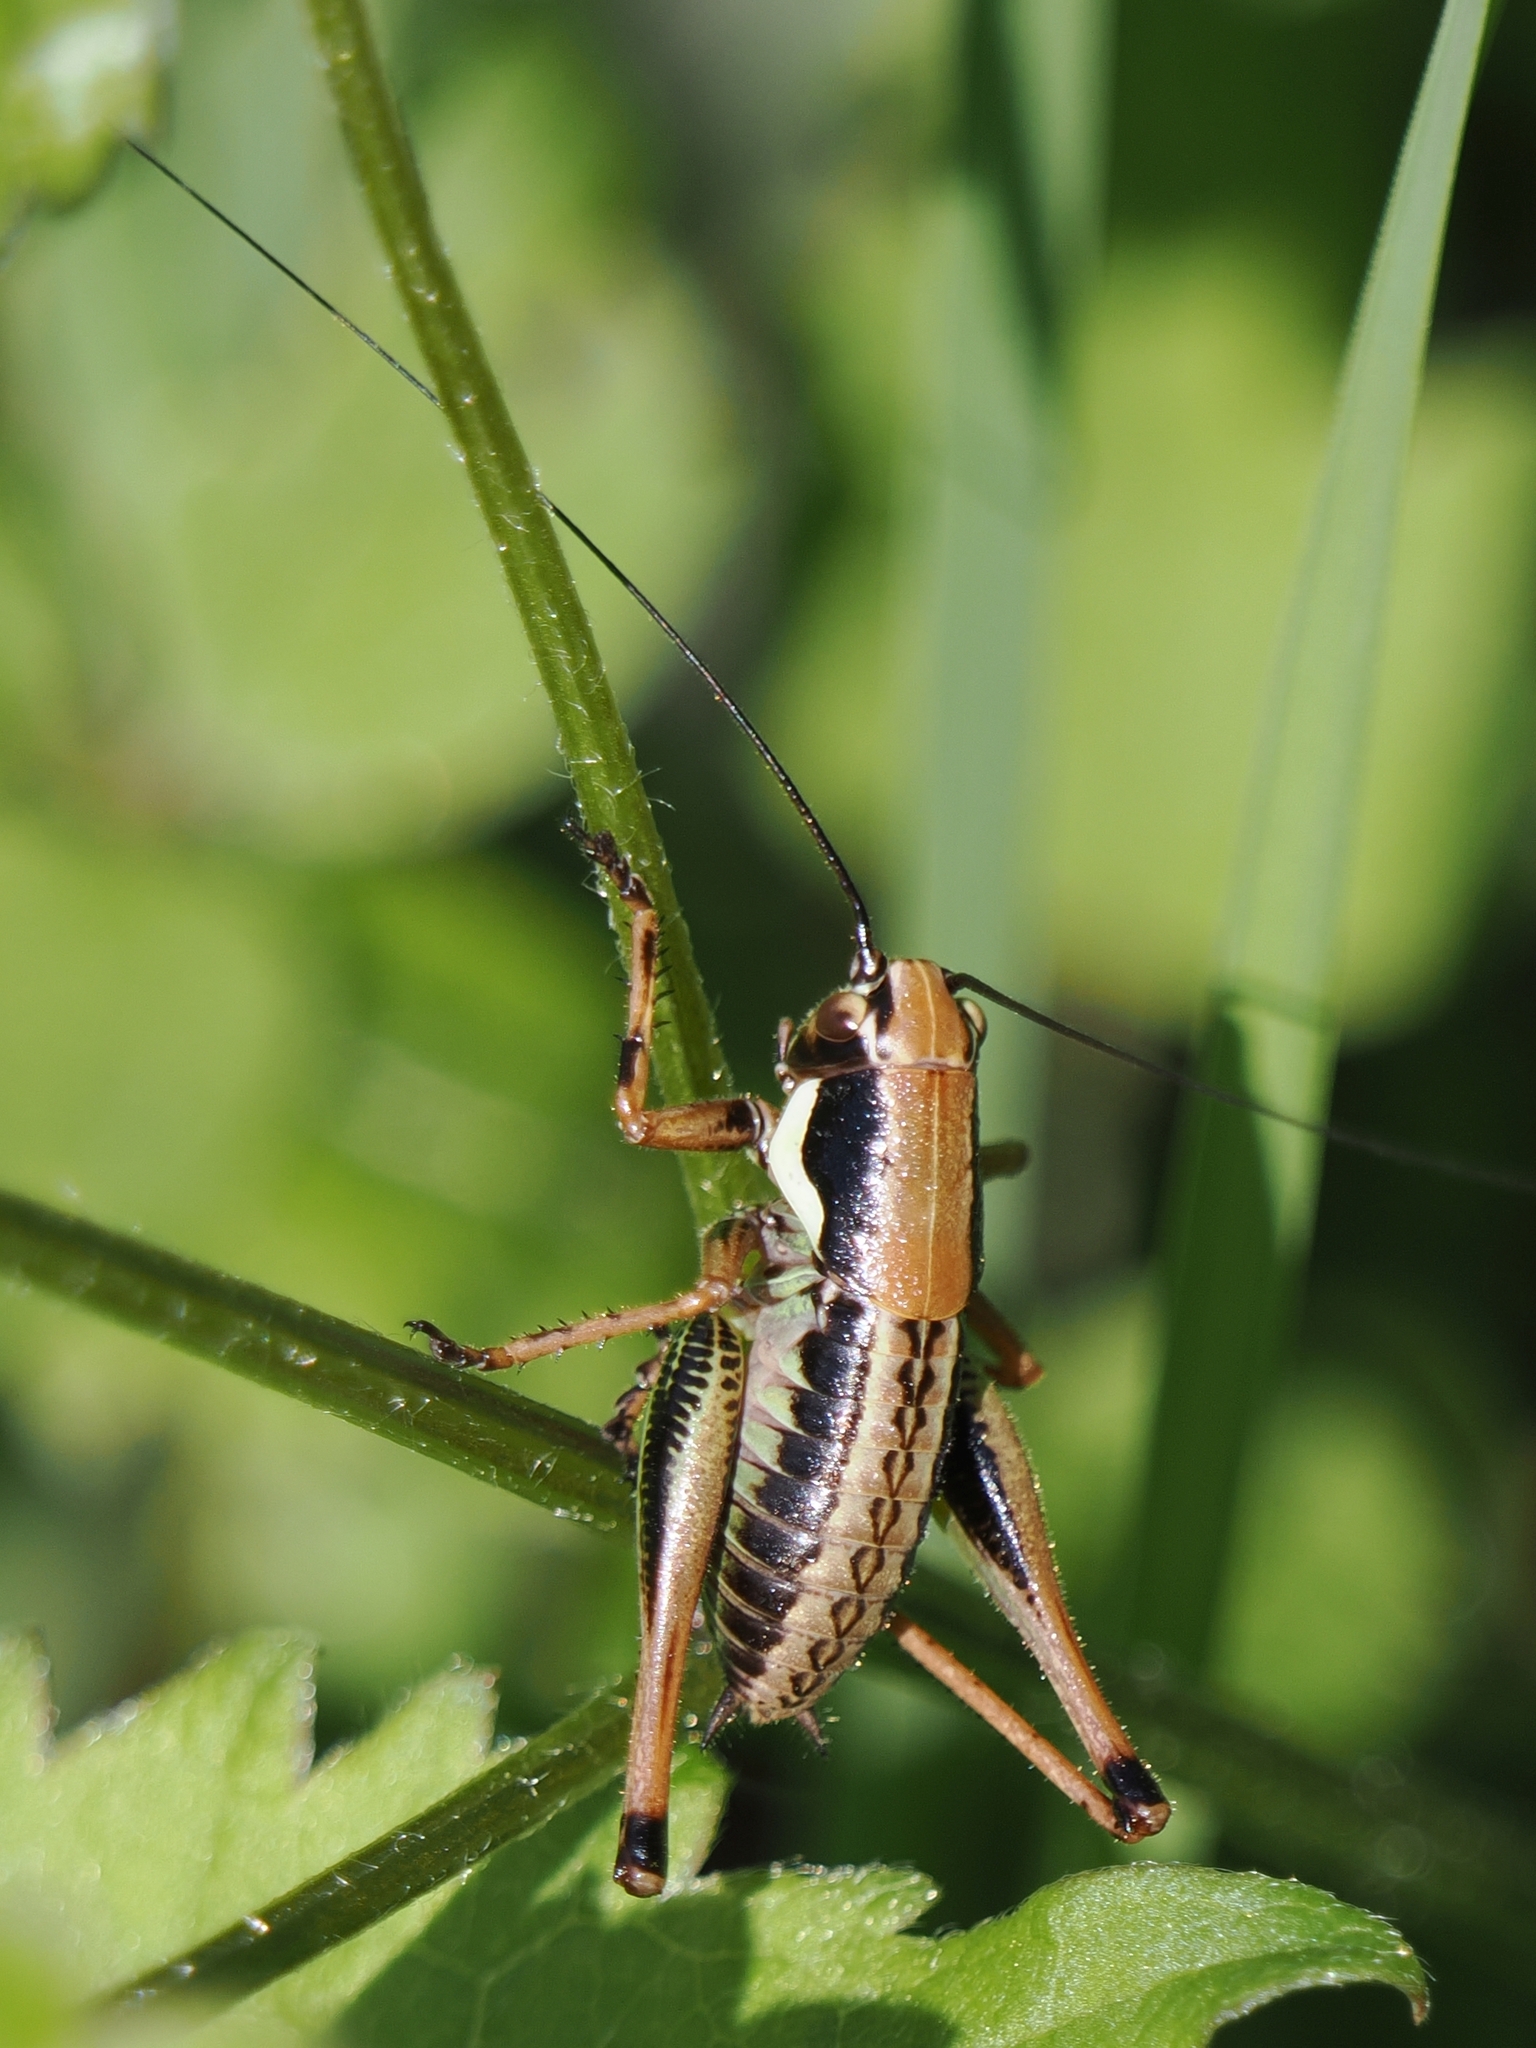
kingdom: Animalia
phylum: Arthropoda
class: Insecta
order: Orthoptera
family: Tettigoniidae
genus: Eupholidoptera
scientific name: Eupholidoptera schmidti
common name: Schmidt's marbled bush-cricket
